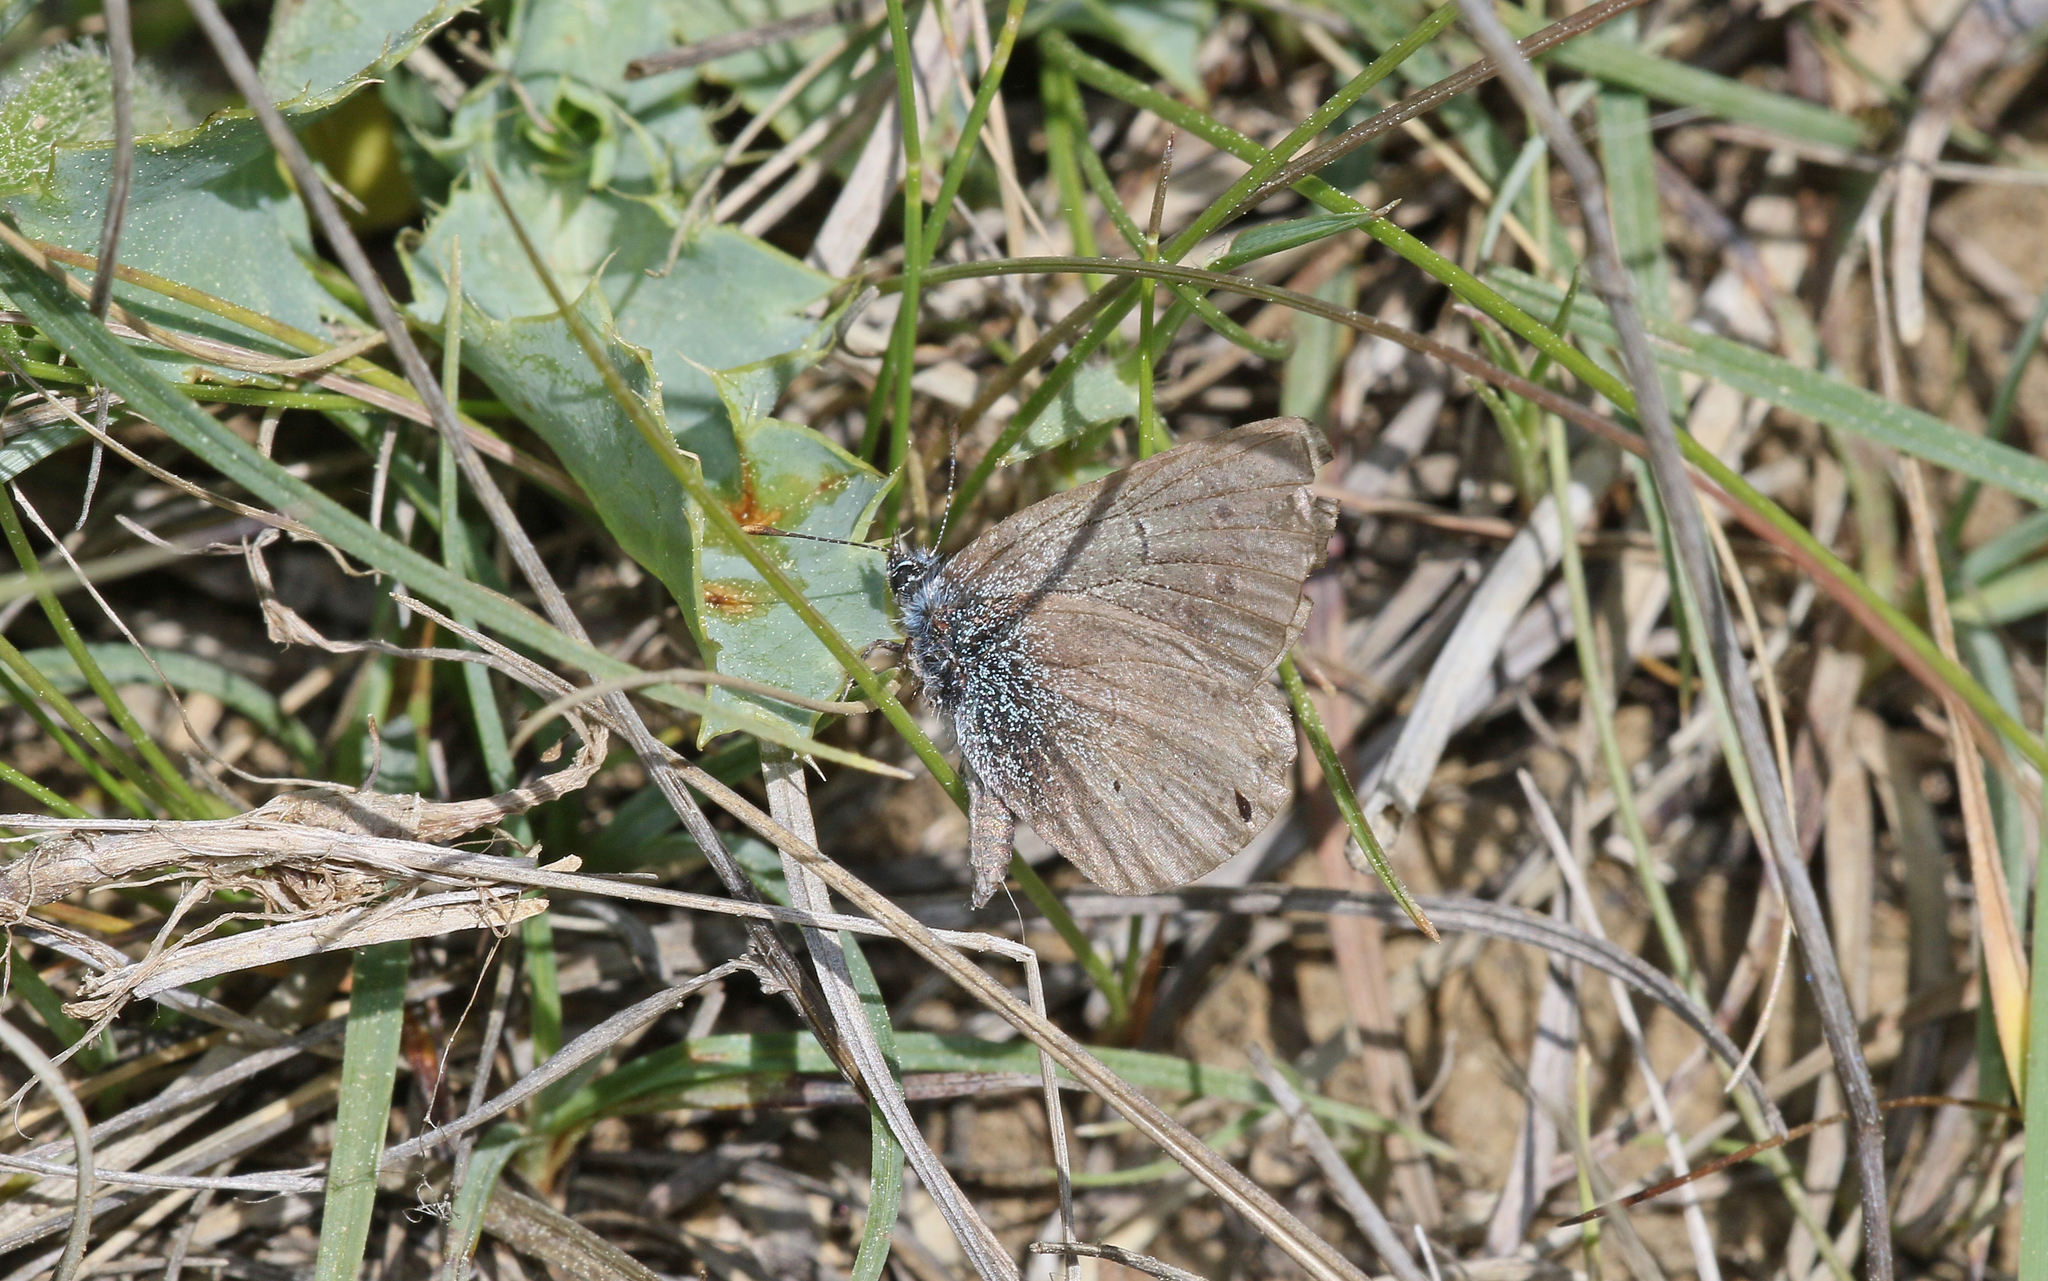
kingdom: Animalia
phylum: Arthropoda
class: Insecta
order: Lepidoptera
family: Lycaenidae
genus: Glaucopsyche
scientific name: Glaucopsyche melanops
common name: Black-eyed blue
